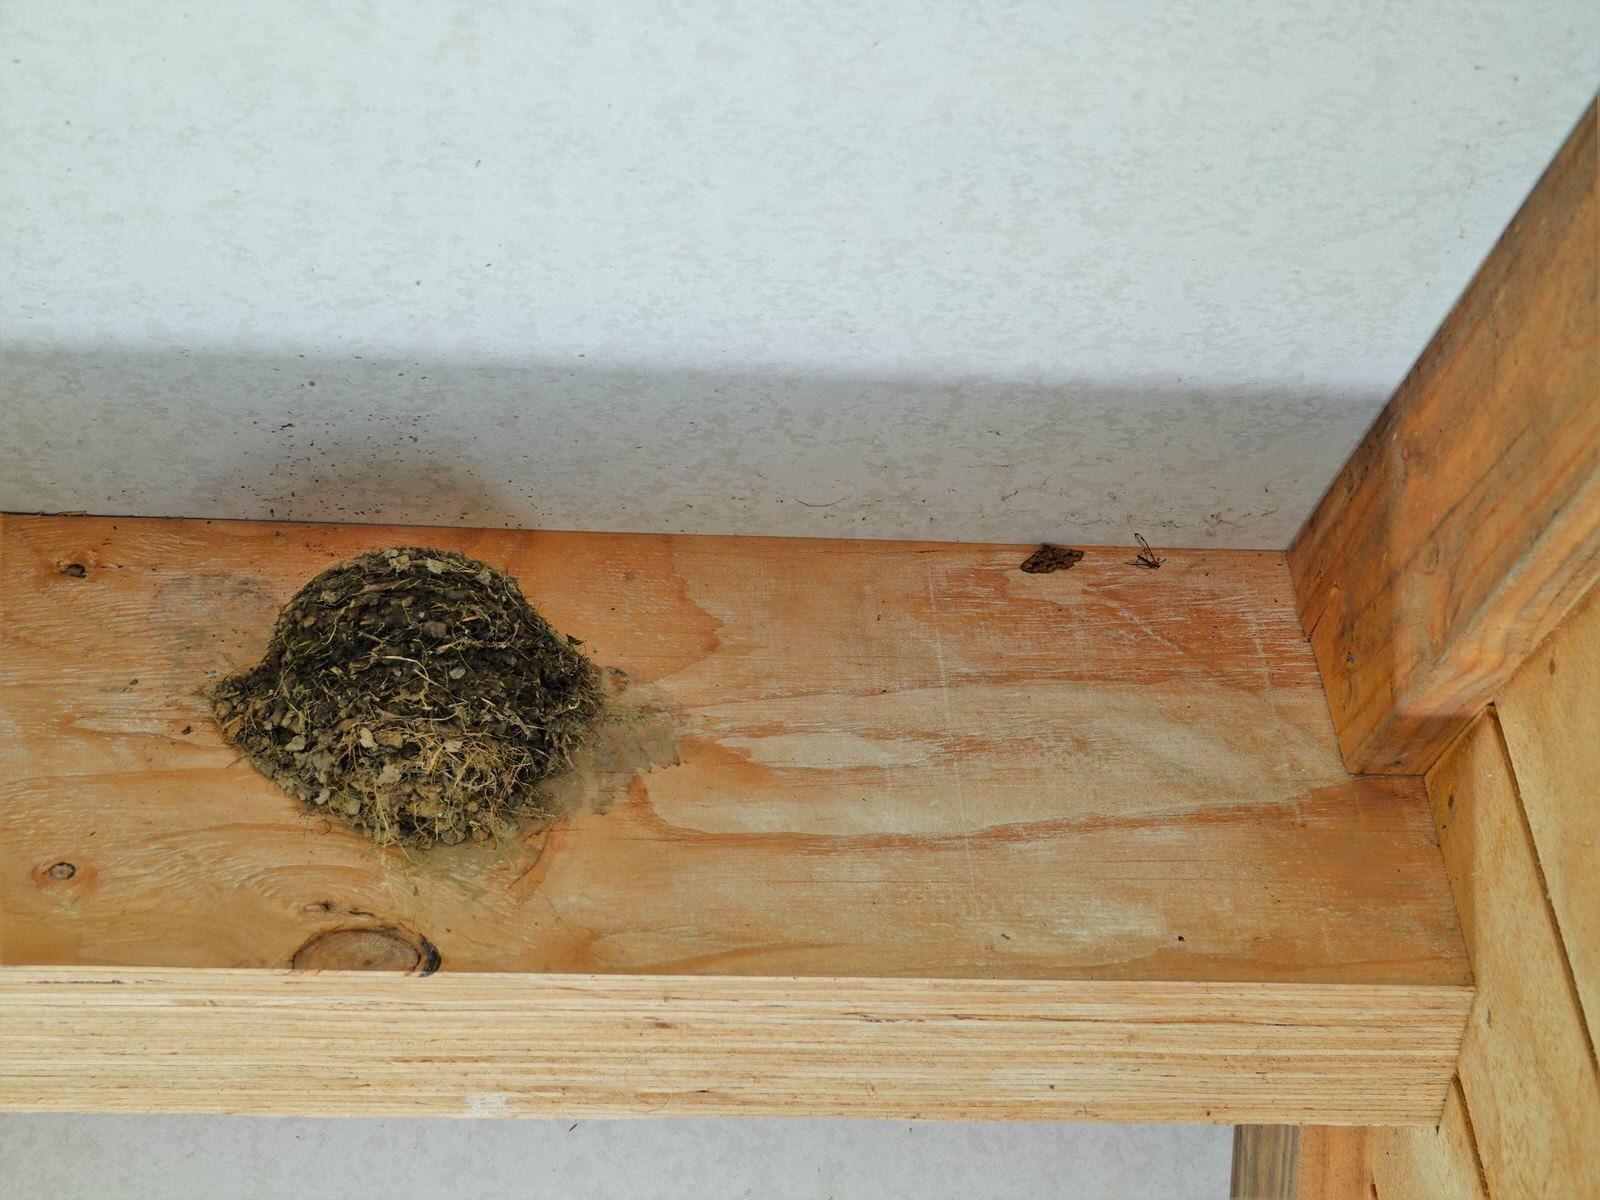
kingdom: Animalia
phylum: Arthropoda
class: Insecta
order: Lepidoptera
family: Erebidae
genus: Artigisa
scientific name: Artigisa melanephele
